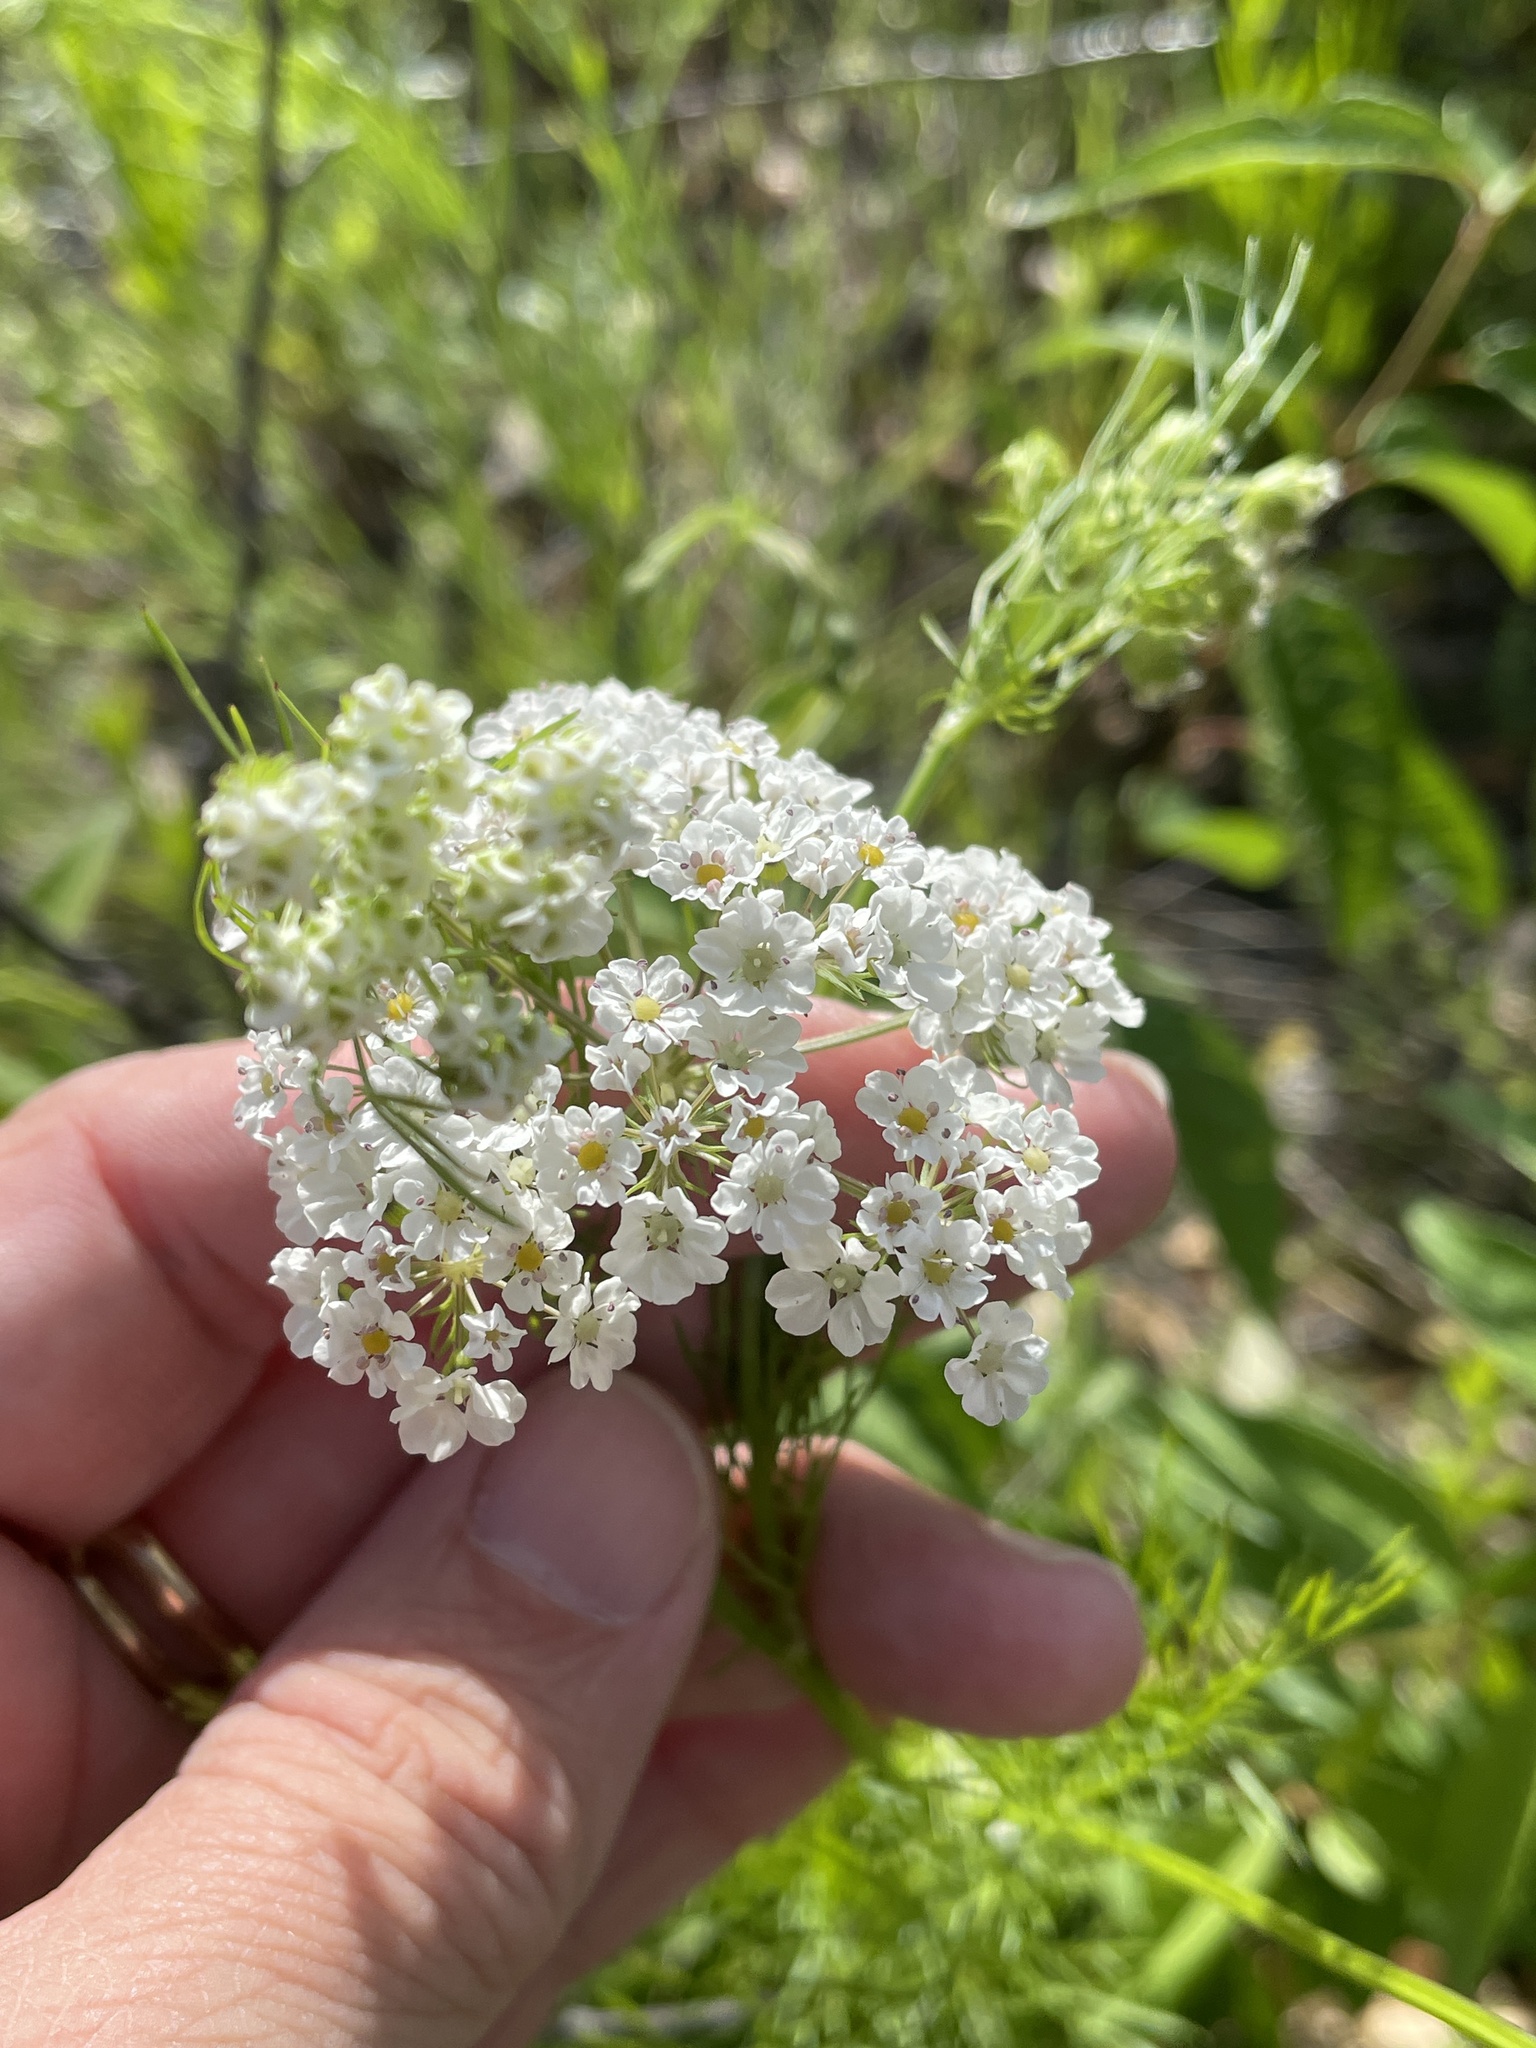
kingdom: Plantae
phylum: Tracheophyta
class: Magnoliopsida
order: Apiales
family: Apiaceae
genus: Atrema
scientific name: Atrema americanum
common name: Prairie-bishop
